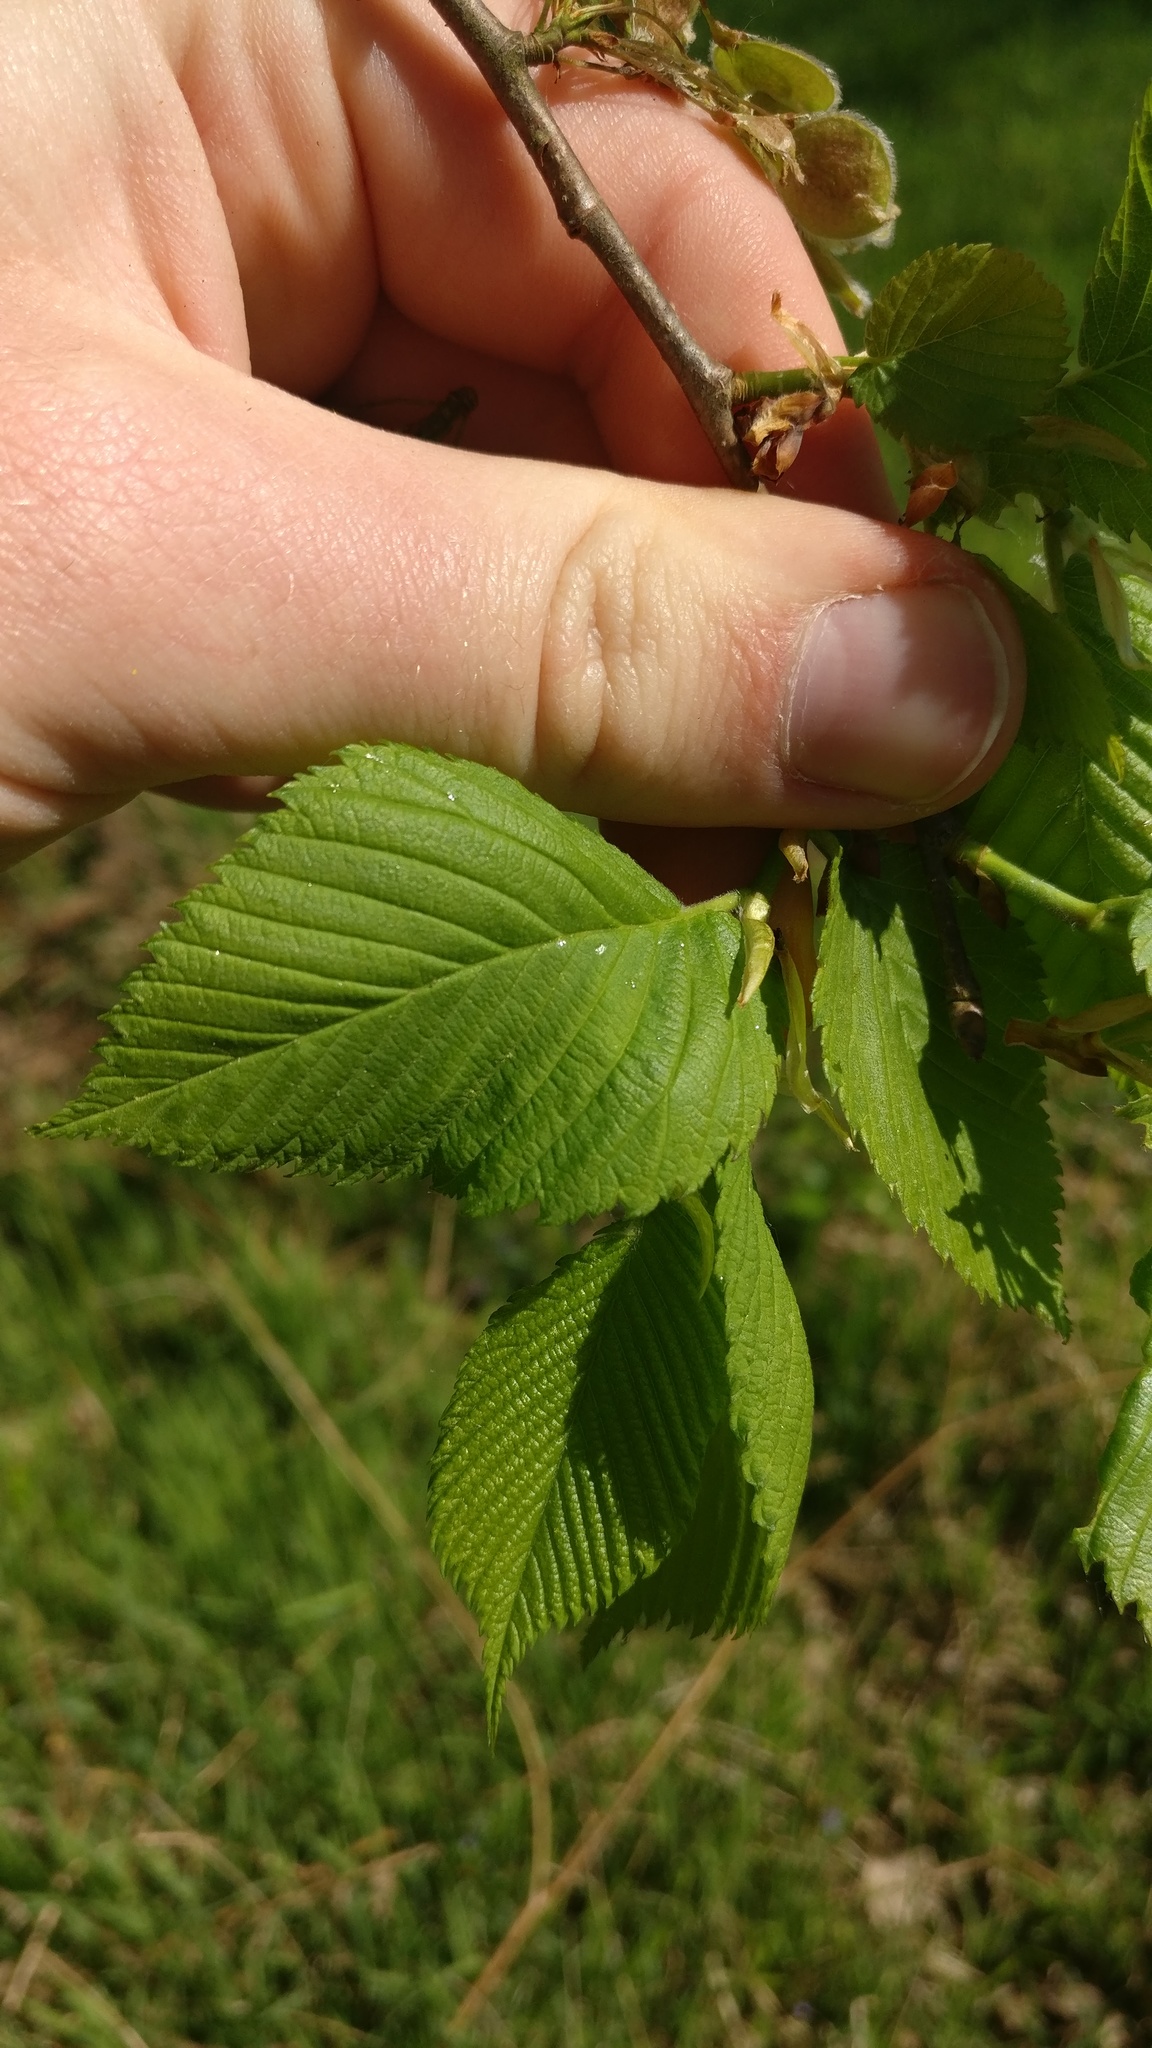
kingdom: Plantae
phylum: Tracheophyta
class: Magnoliopsida
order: Rosales
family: Ulmaceae
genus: Ulmus
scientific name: Ulmus laevis
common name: European white-elm
